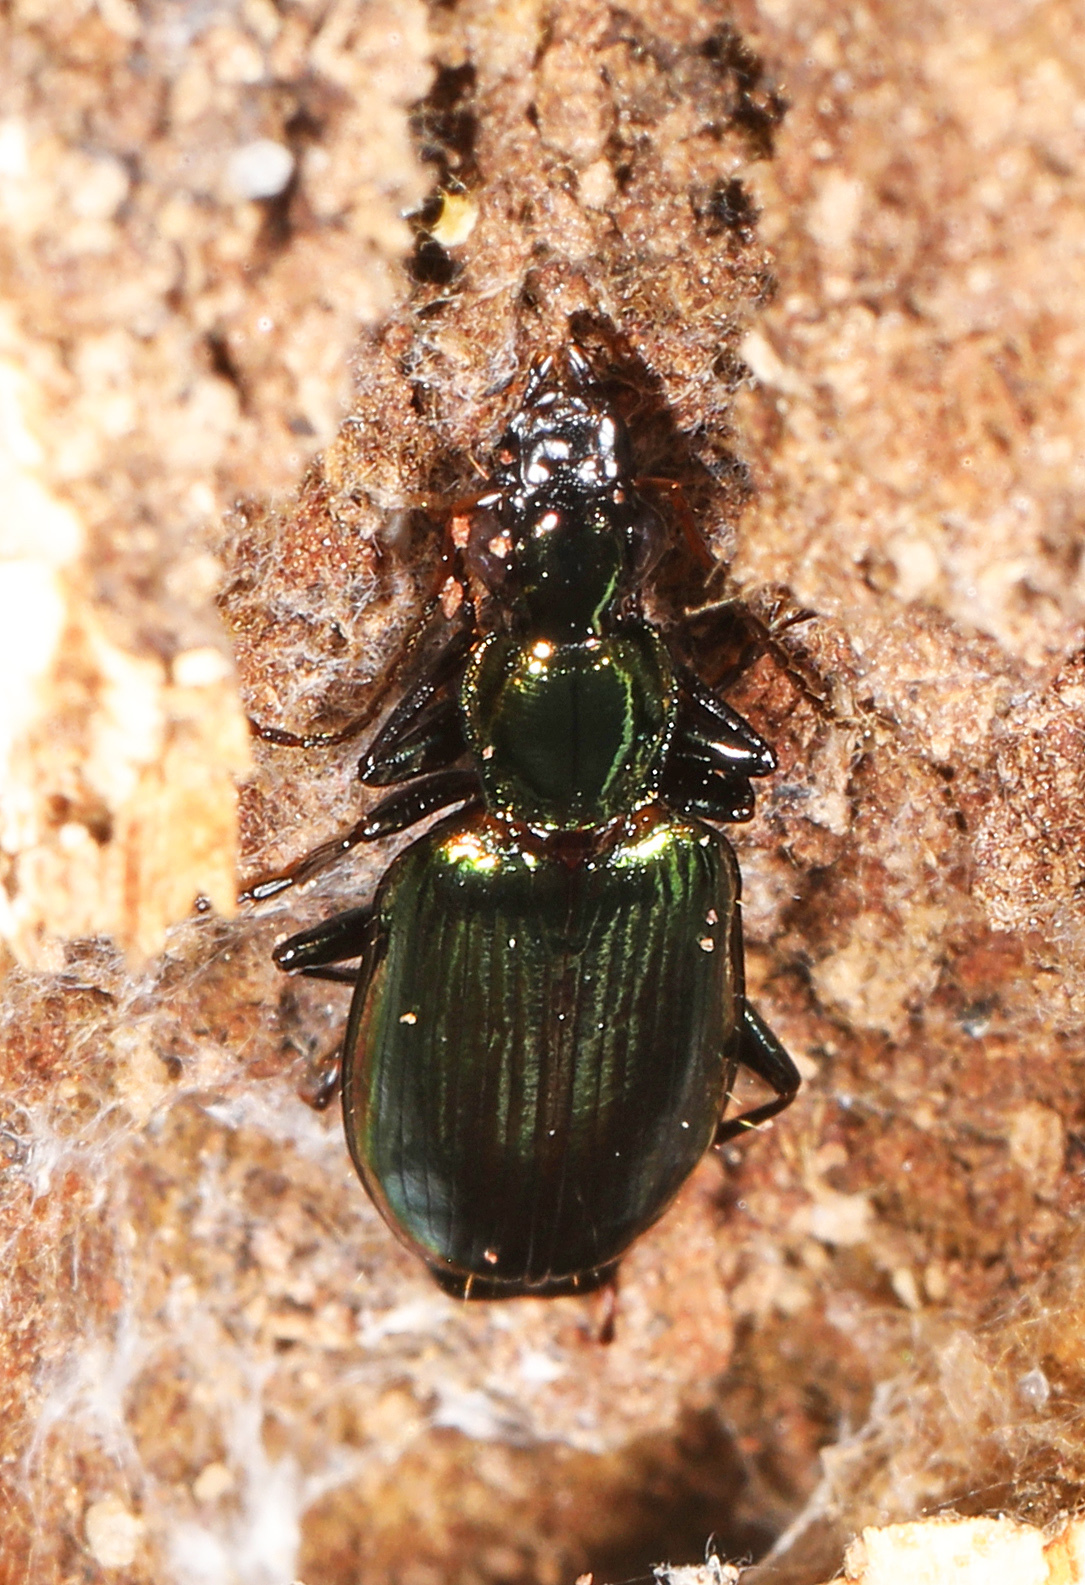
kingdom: Animalia
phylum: Arthropoda
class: Insecta
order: Coleoptera
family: Carabidae
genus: Calleida
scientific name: Calleida viridipennis
